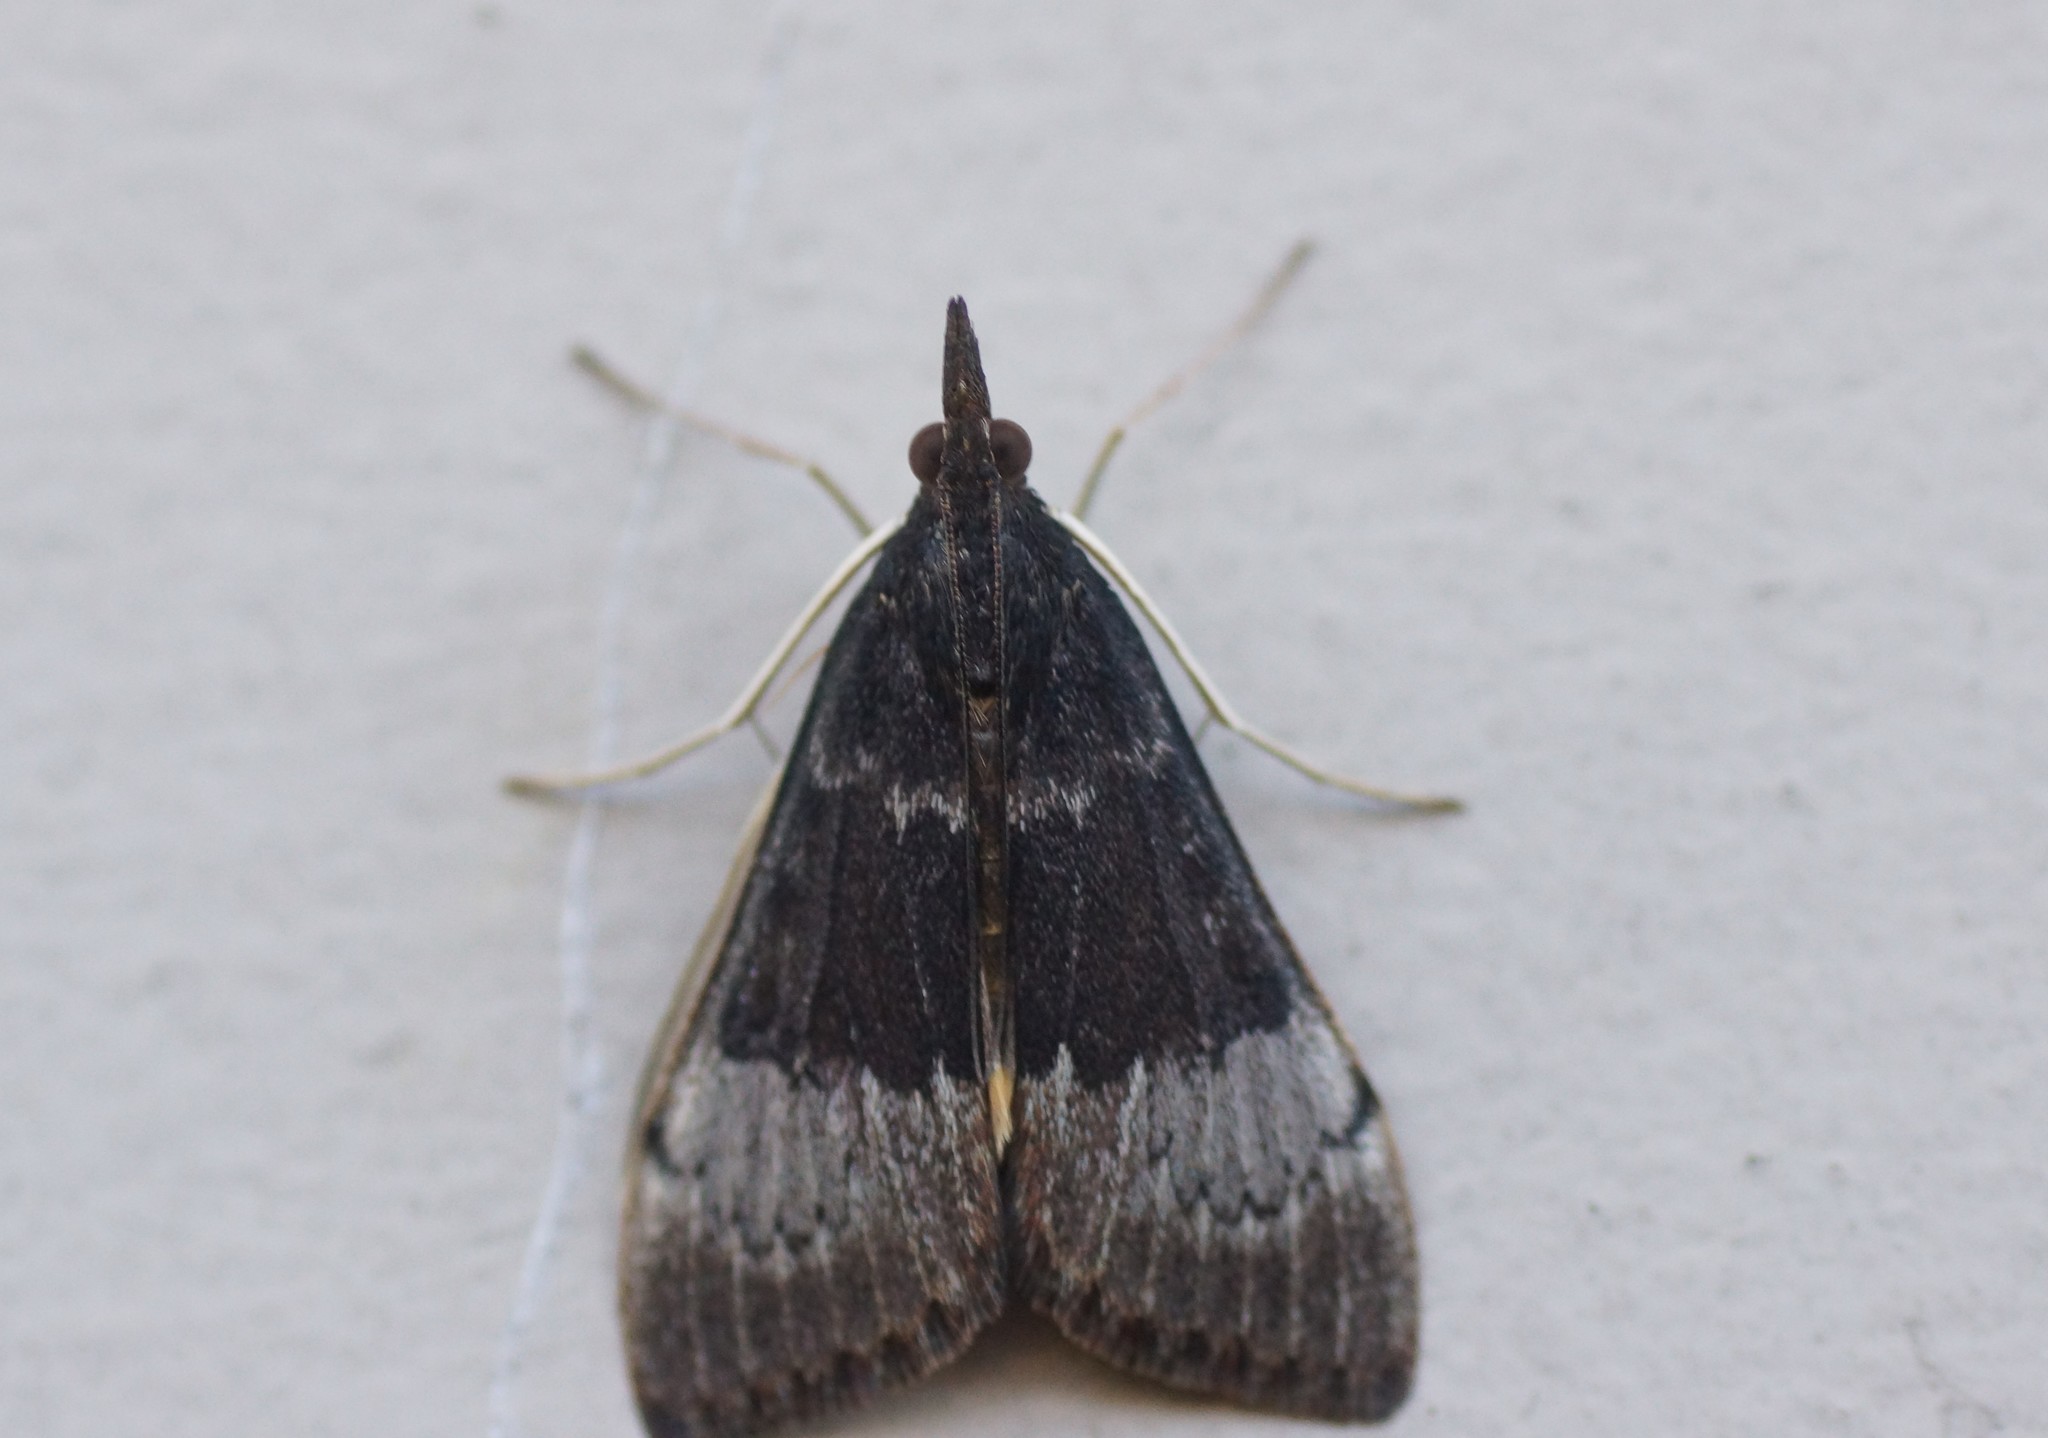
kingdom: Animalia
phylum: Arthropoda
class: Insecta
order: Lepidoptera
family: Crambidae
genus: Uresiphita
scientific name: Uresiphita ornithopteralis
